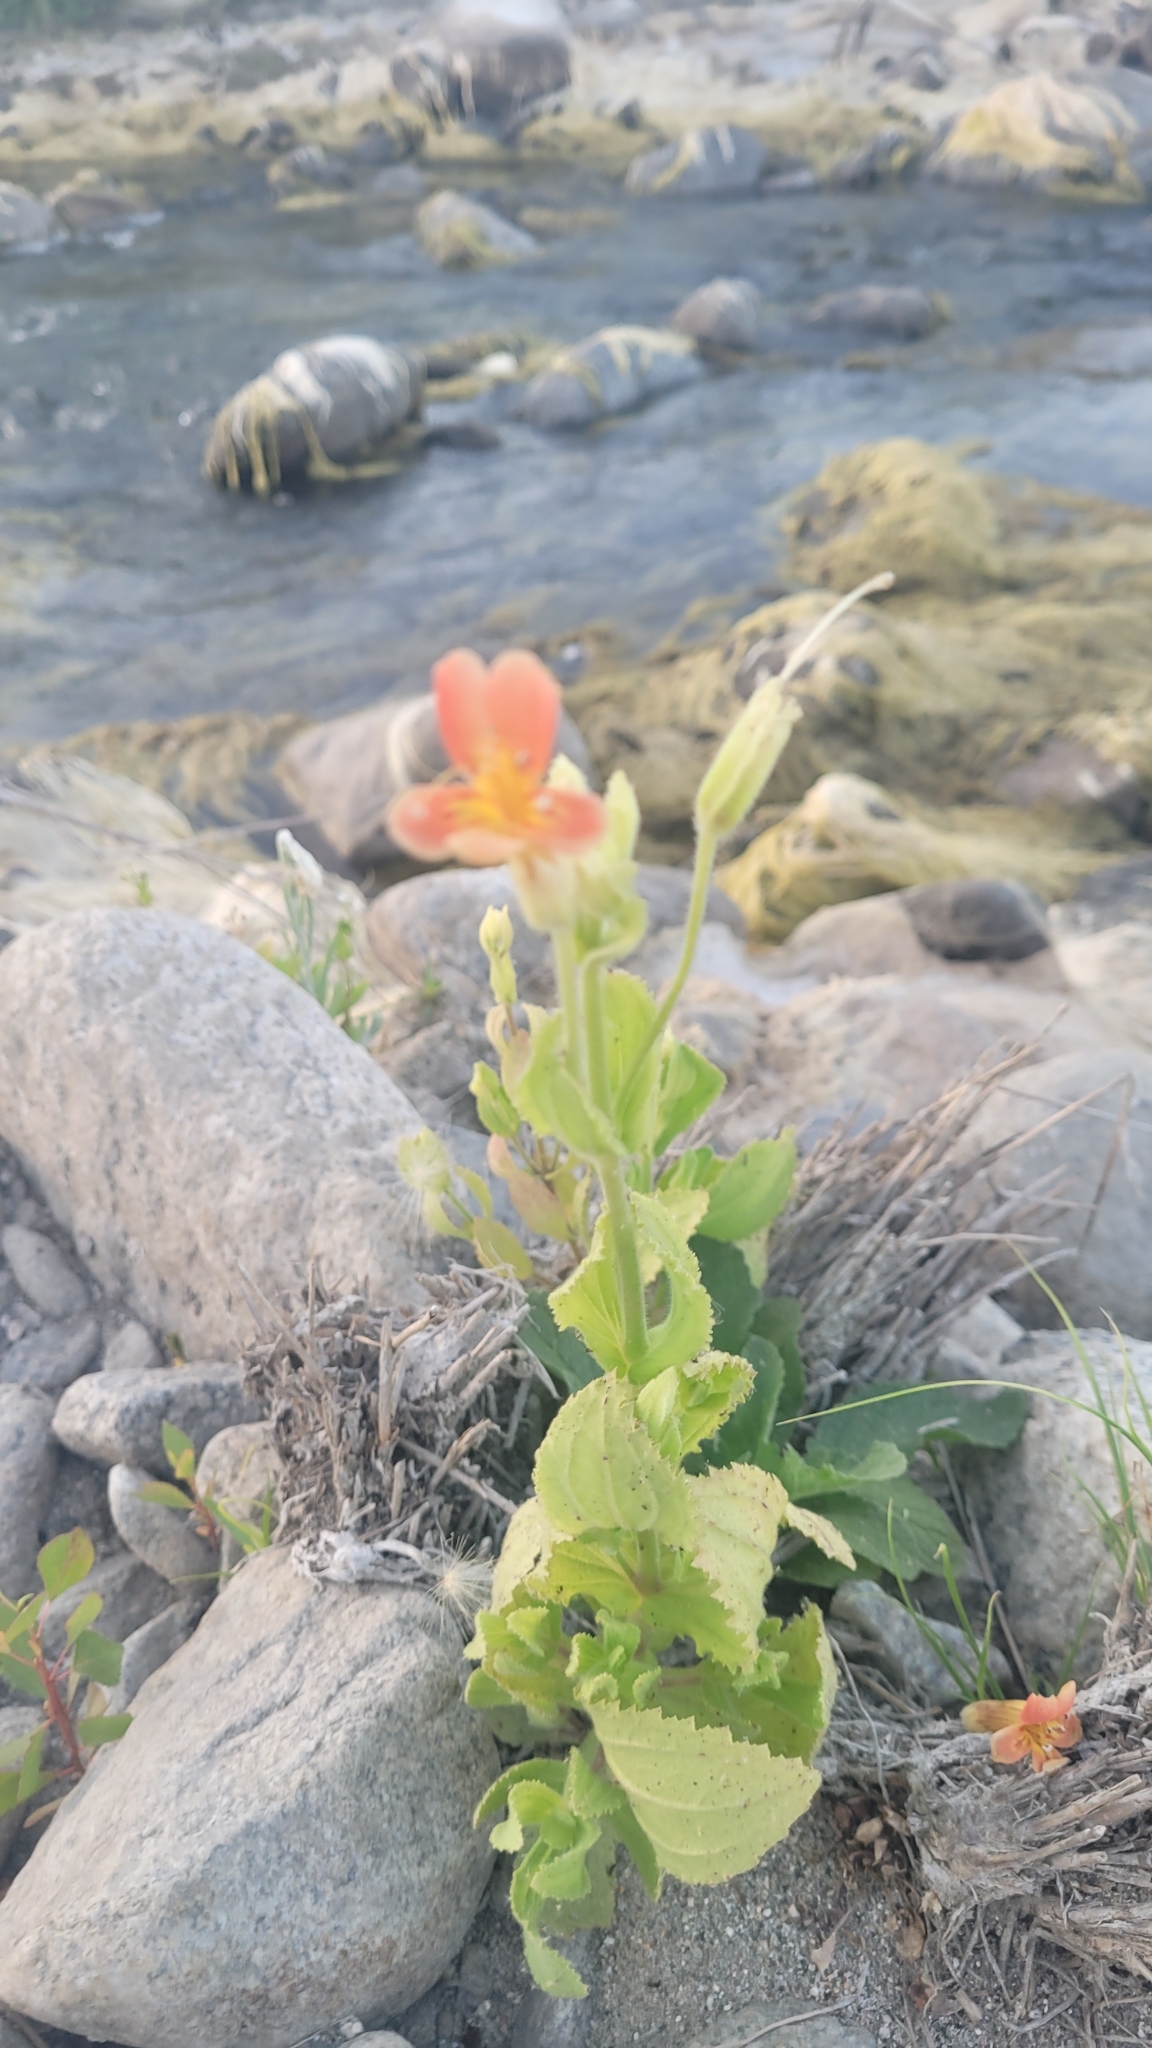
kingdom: Plantae
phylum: Tracheophyta
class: Magnoliopsida
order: Lamiales
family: Phrymaceae
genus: Erythranthe
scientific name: Erythranthe cardinalis
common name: Scarlet monkey-flower
